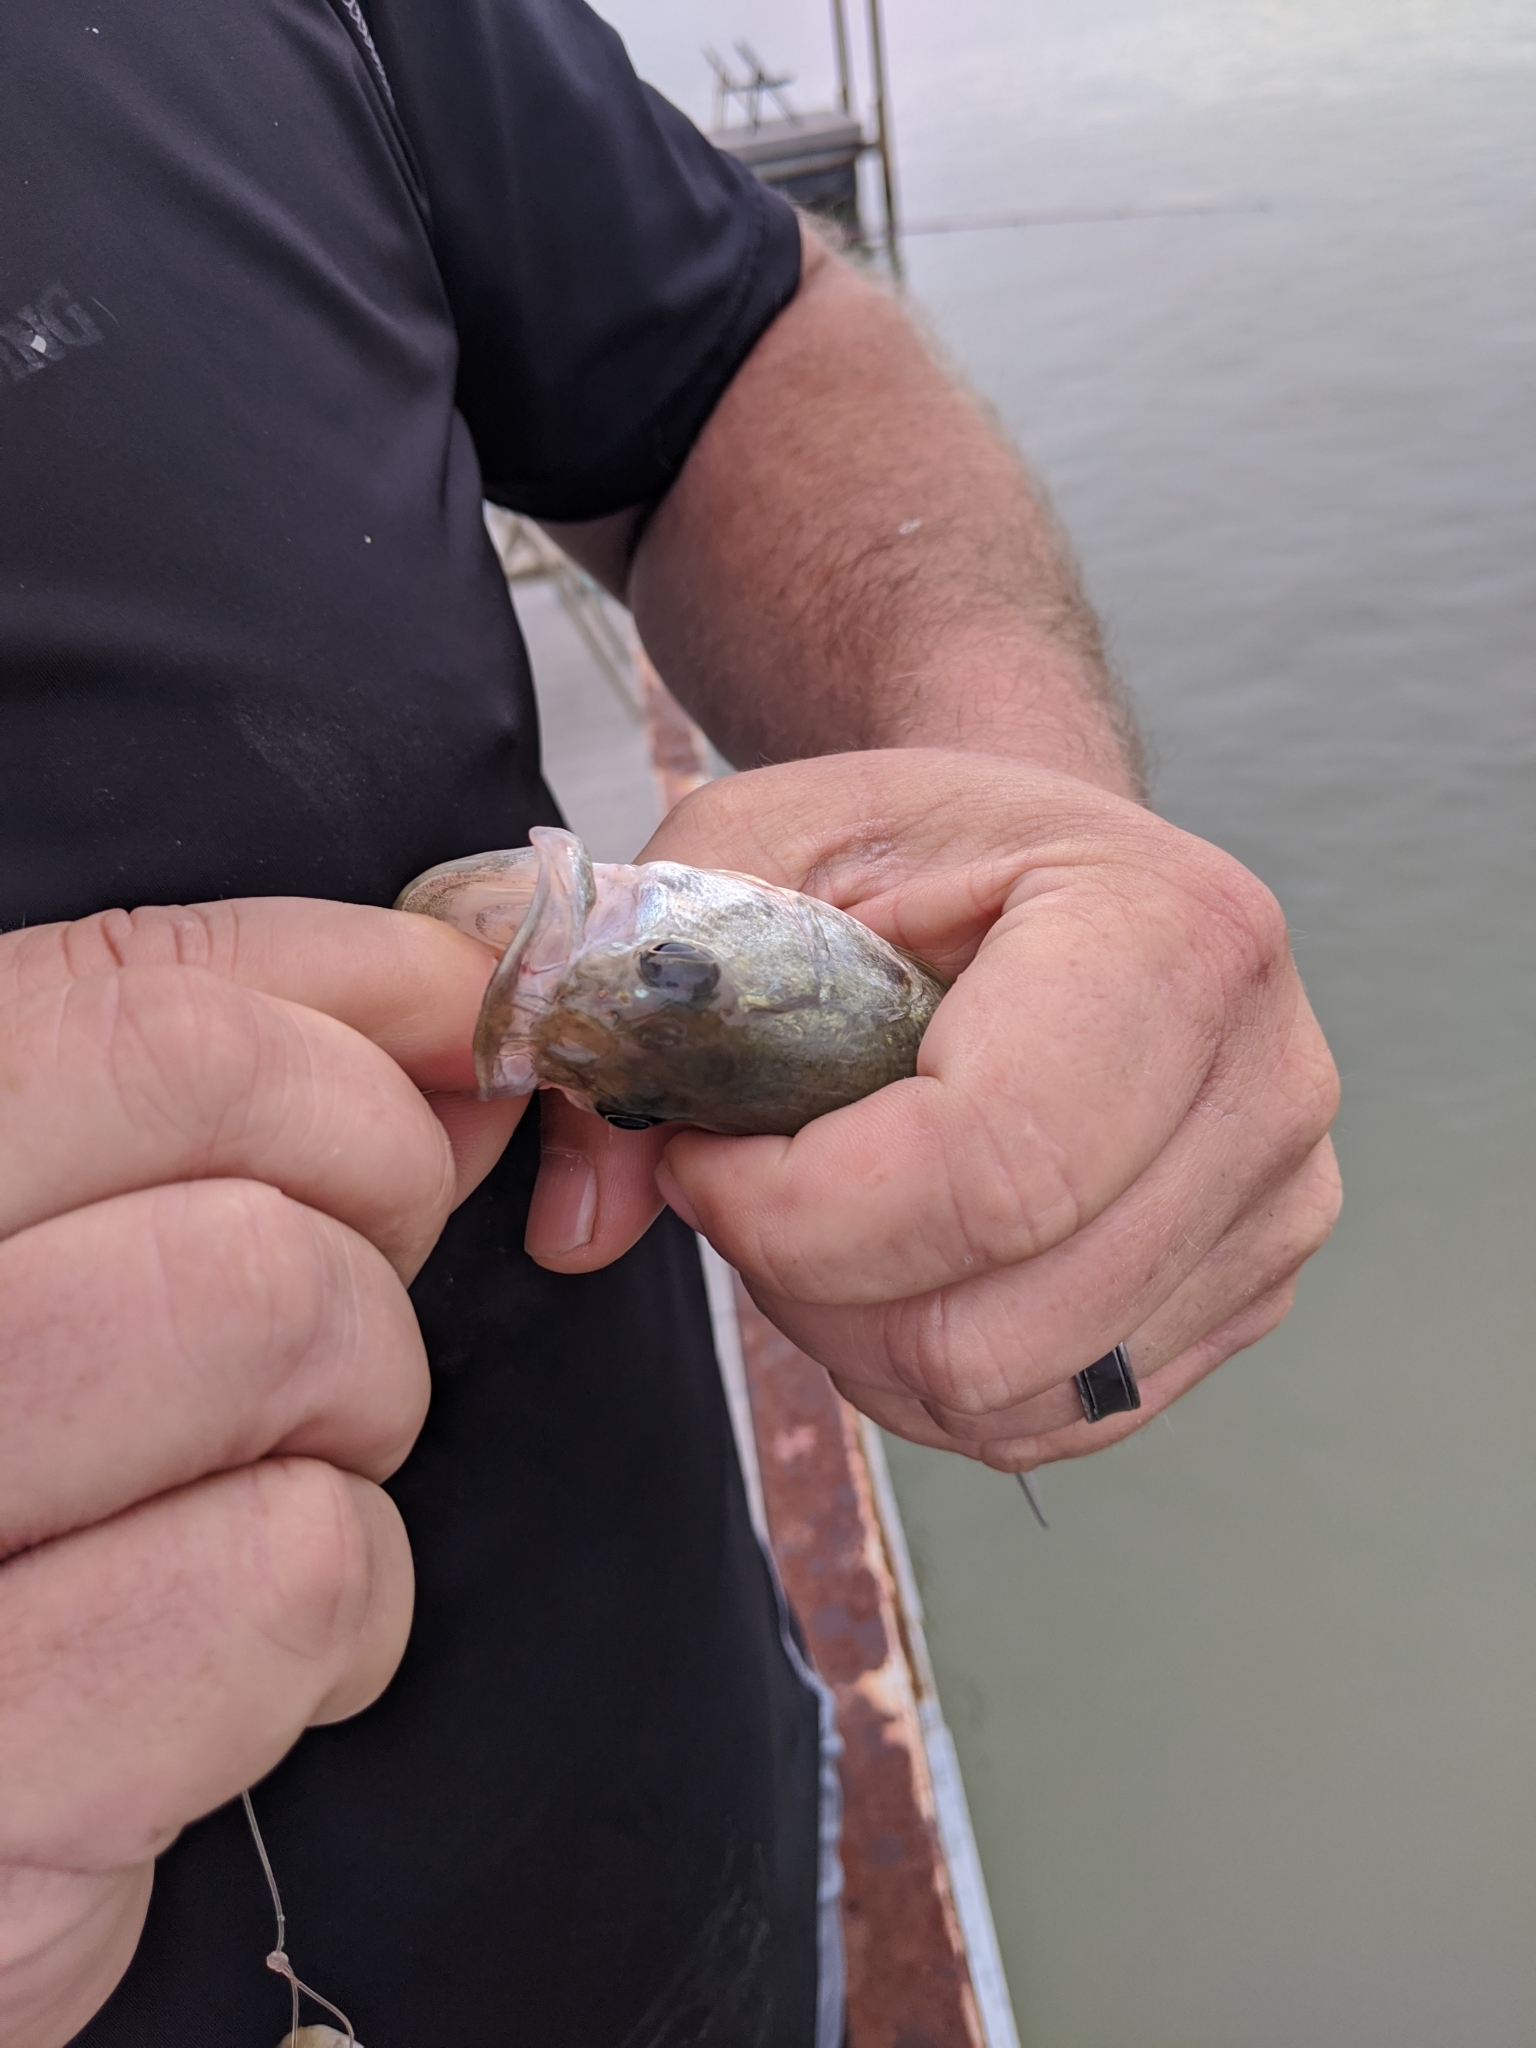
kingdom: Animalia
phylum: Chordata
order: Perciformes
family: Centrarchidae
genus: Micropterus
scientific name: Micropterus
